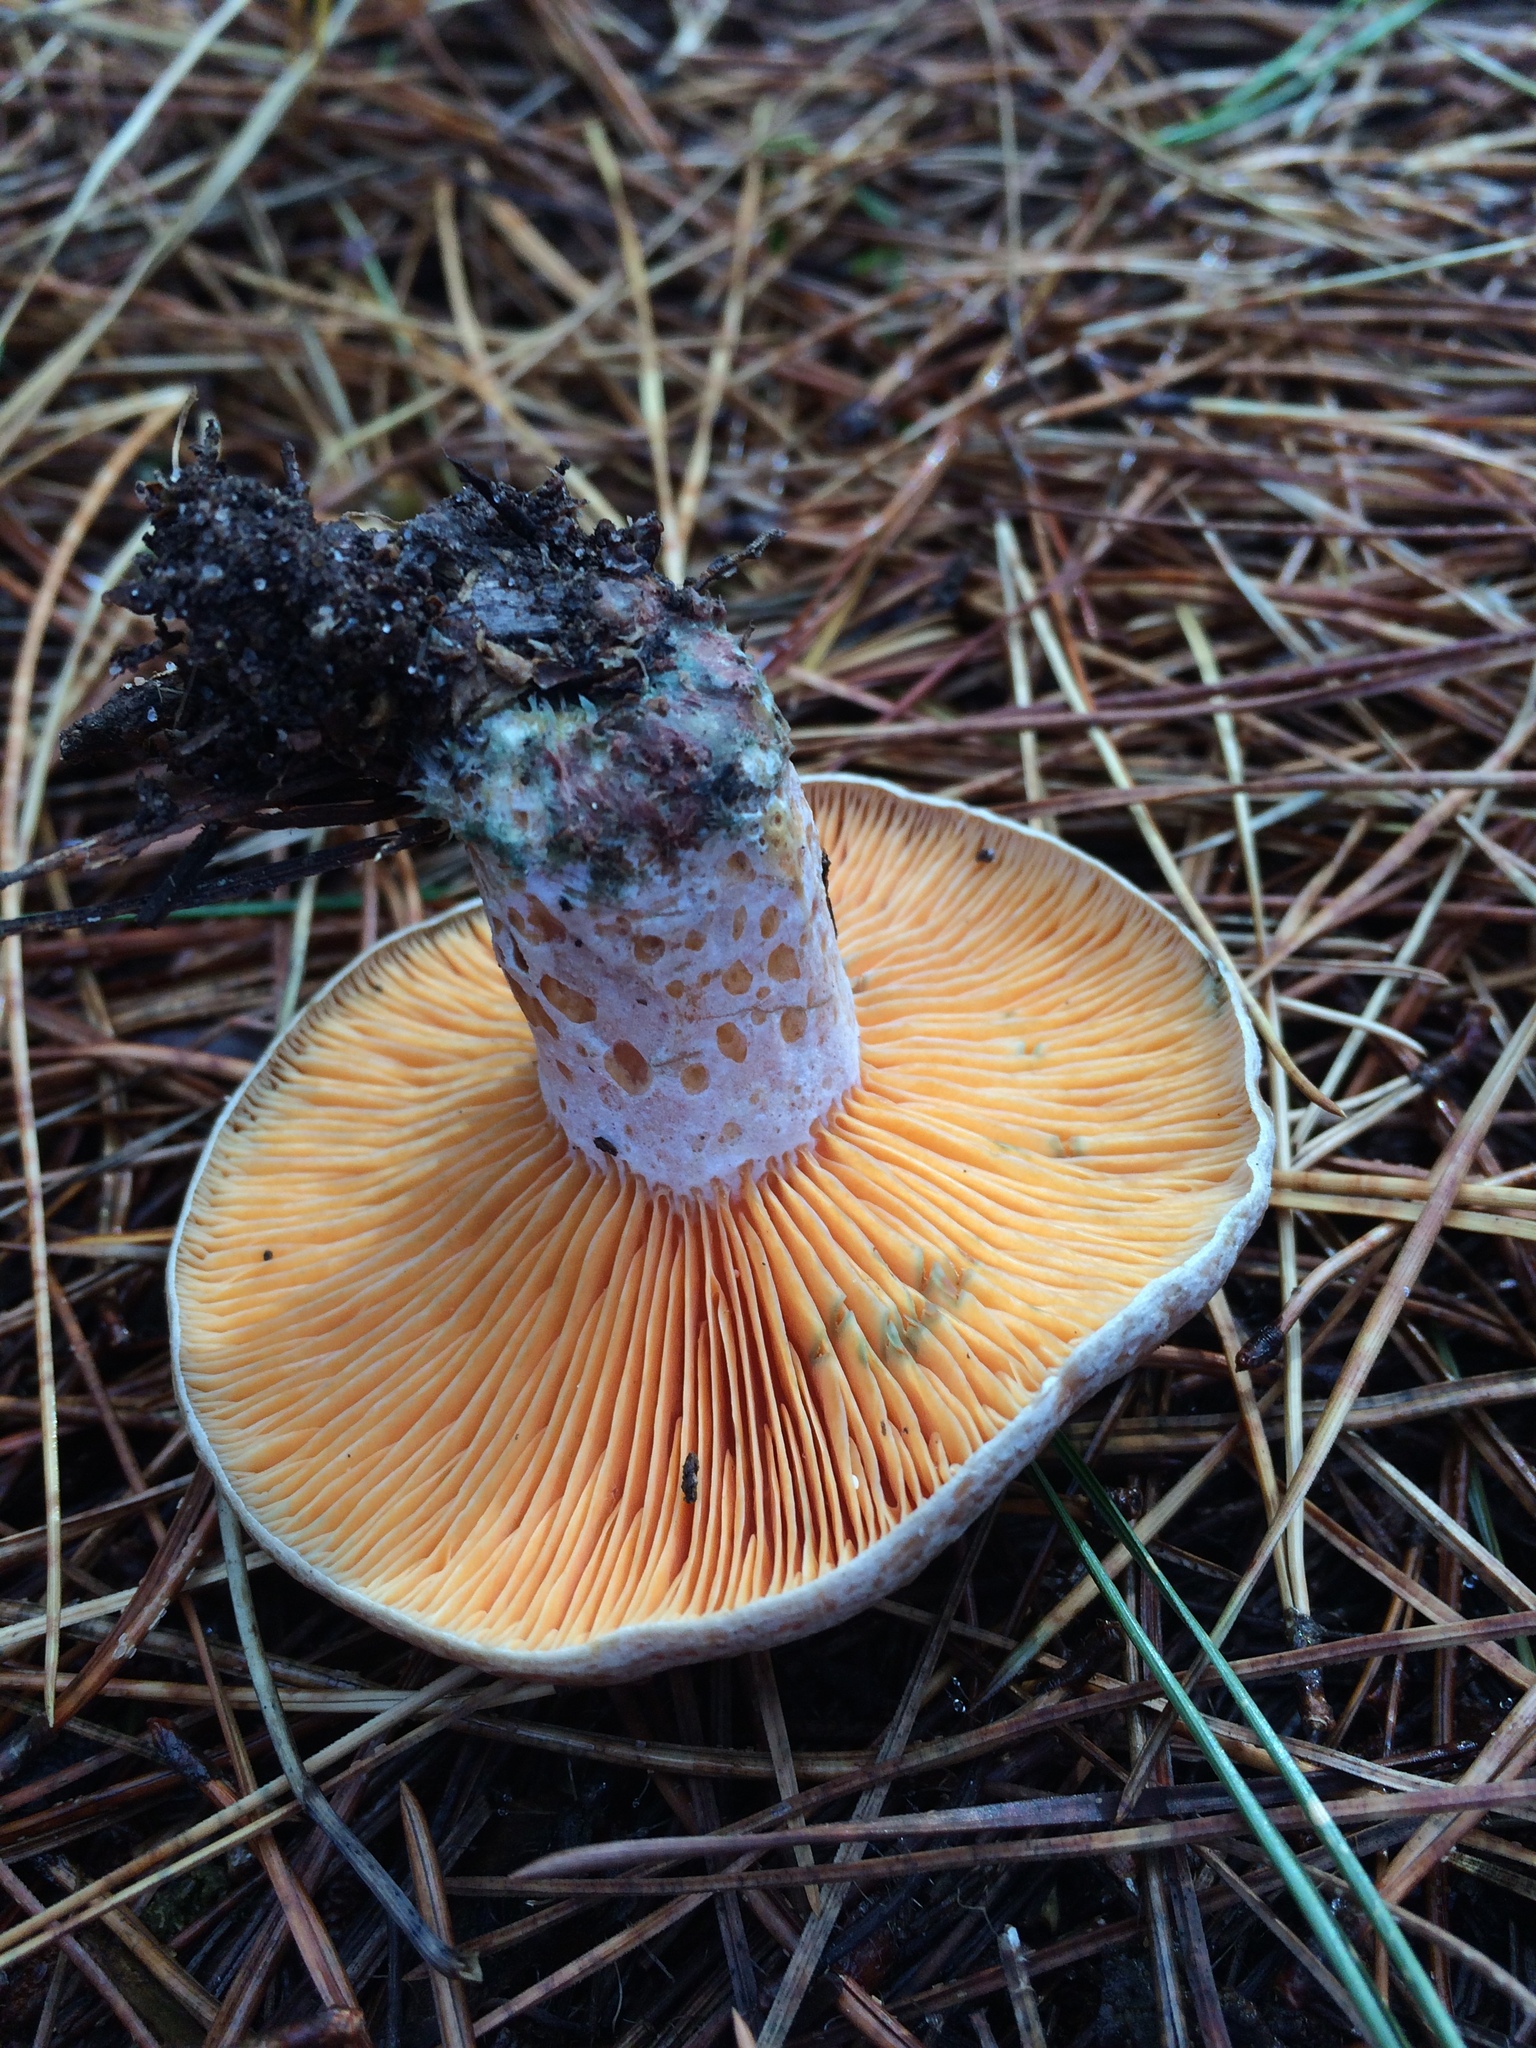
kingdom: Fungi
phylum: Basidiomycota
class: Agaricomycetes
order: Russulales
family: Russulaceae
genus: Lactarius
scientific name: Lactarius deliciosus
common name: Saffron milk-cap
